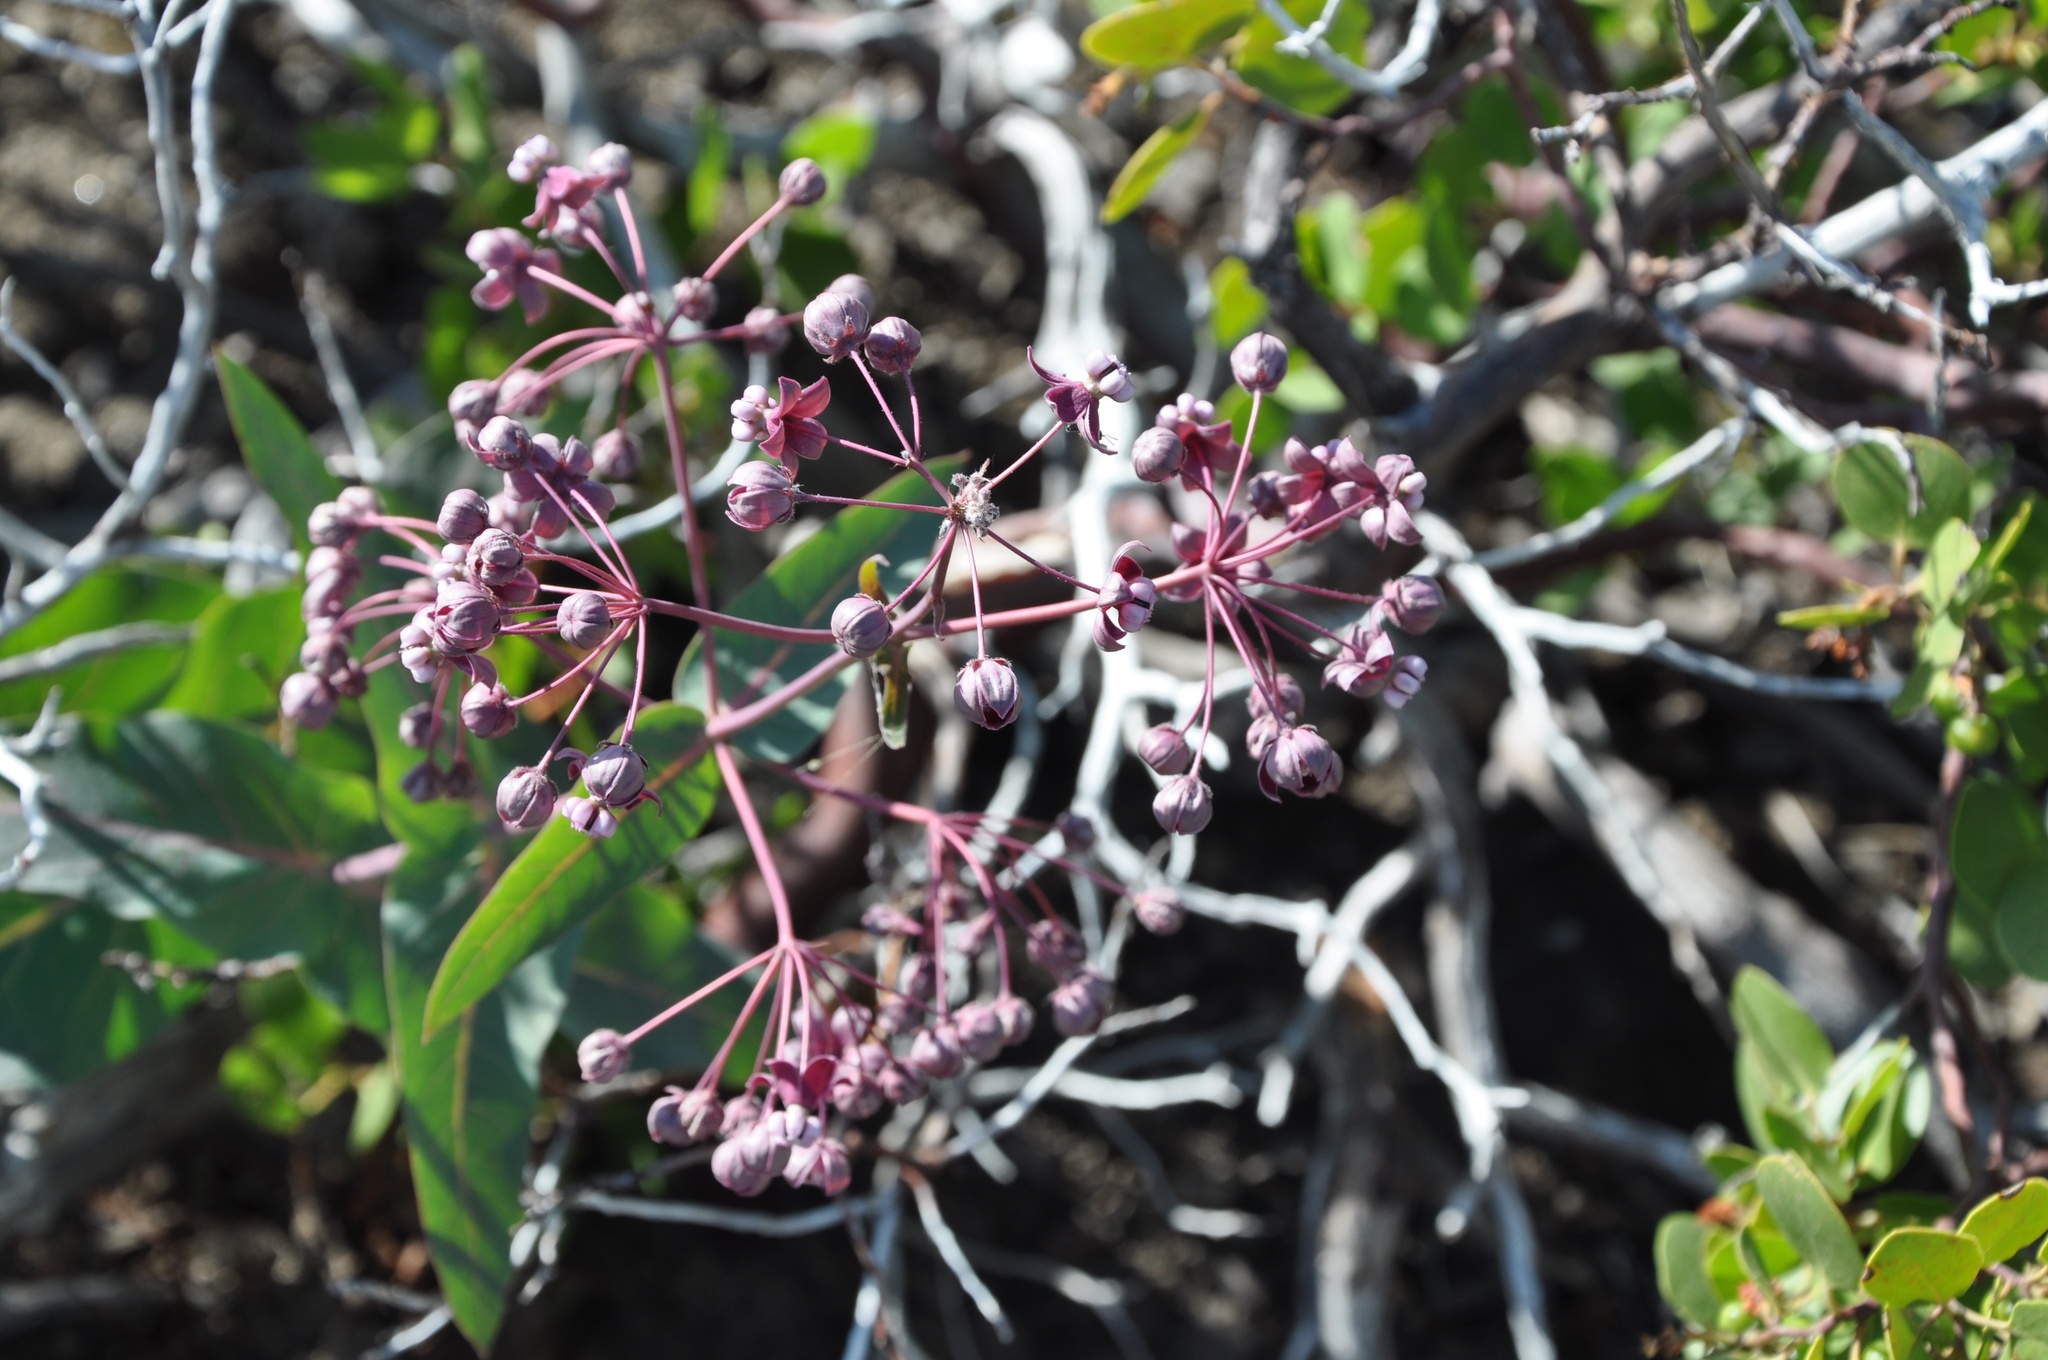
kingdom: Plantae
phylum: Tracheophyta
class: Magnoliopsida
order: Gentianales
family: Apocynaceae
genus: Asclepias
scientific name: Asclepias cordifolia
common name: Purple milkweed
